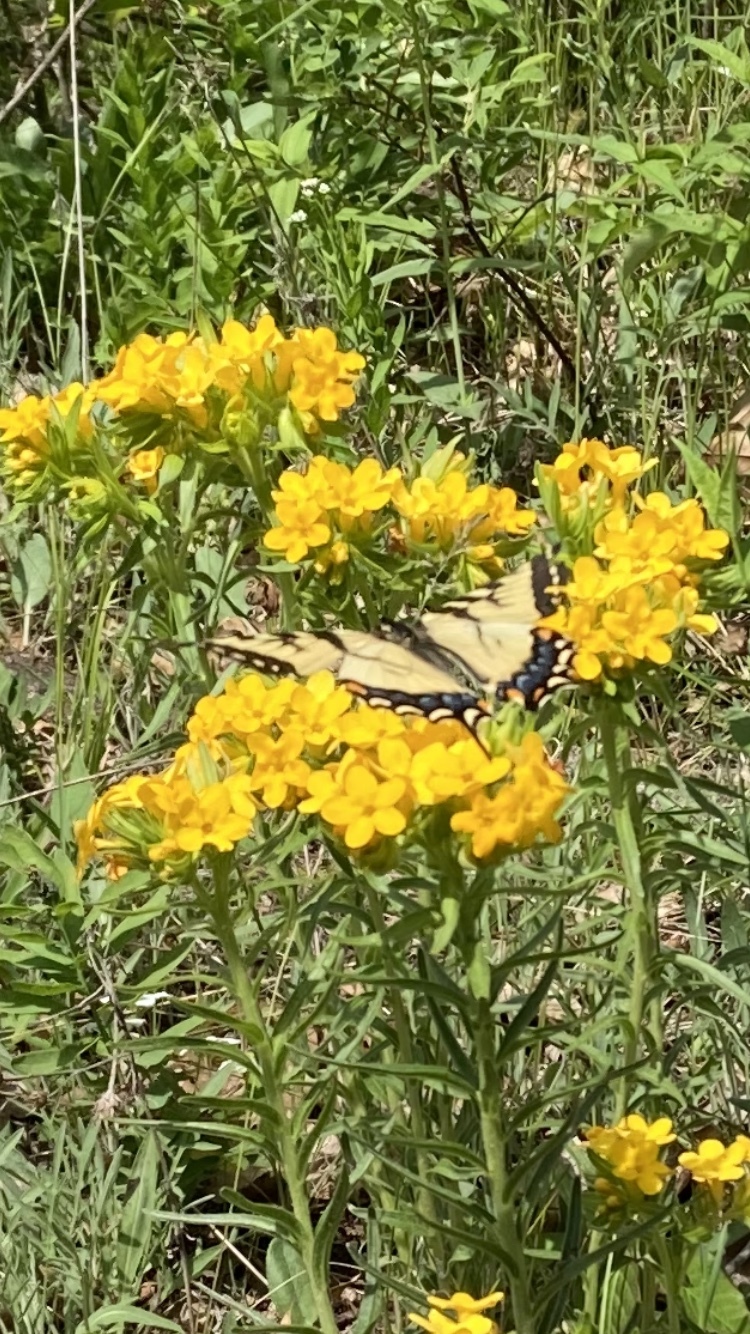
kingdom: Animalia
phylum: Arthropoda
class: Insecta
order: Lepidoptera
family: Papilionidae
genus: Papilio
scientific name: Papilio glaucus
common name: Tiger swallowtail
